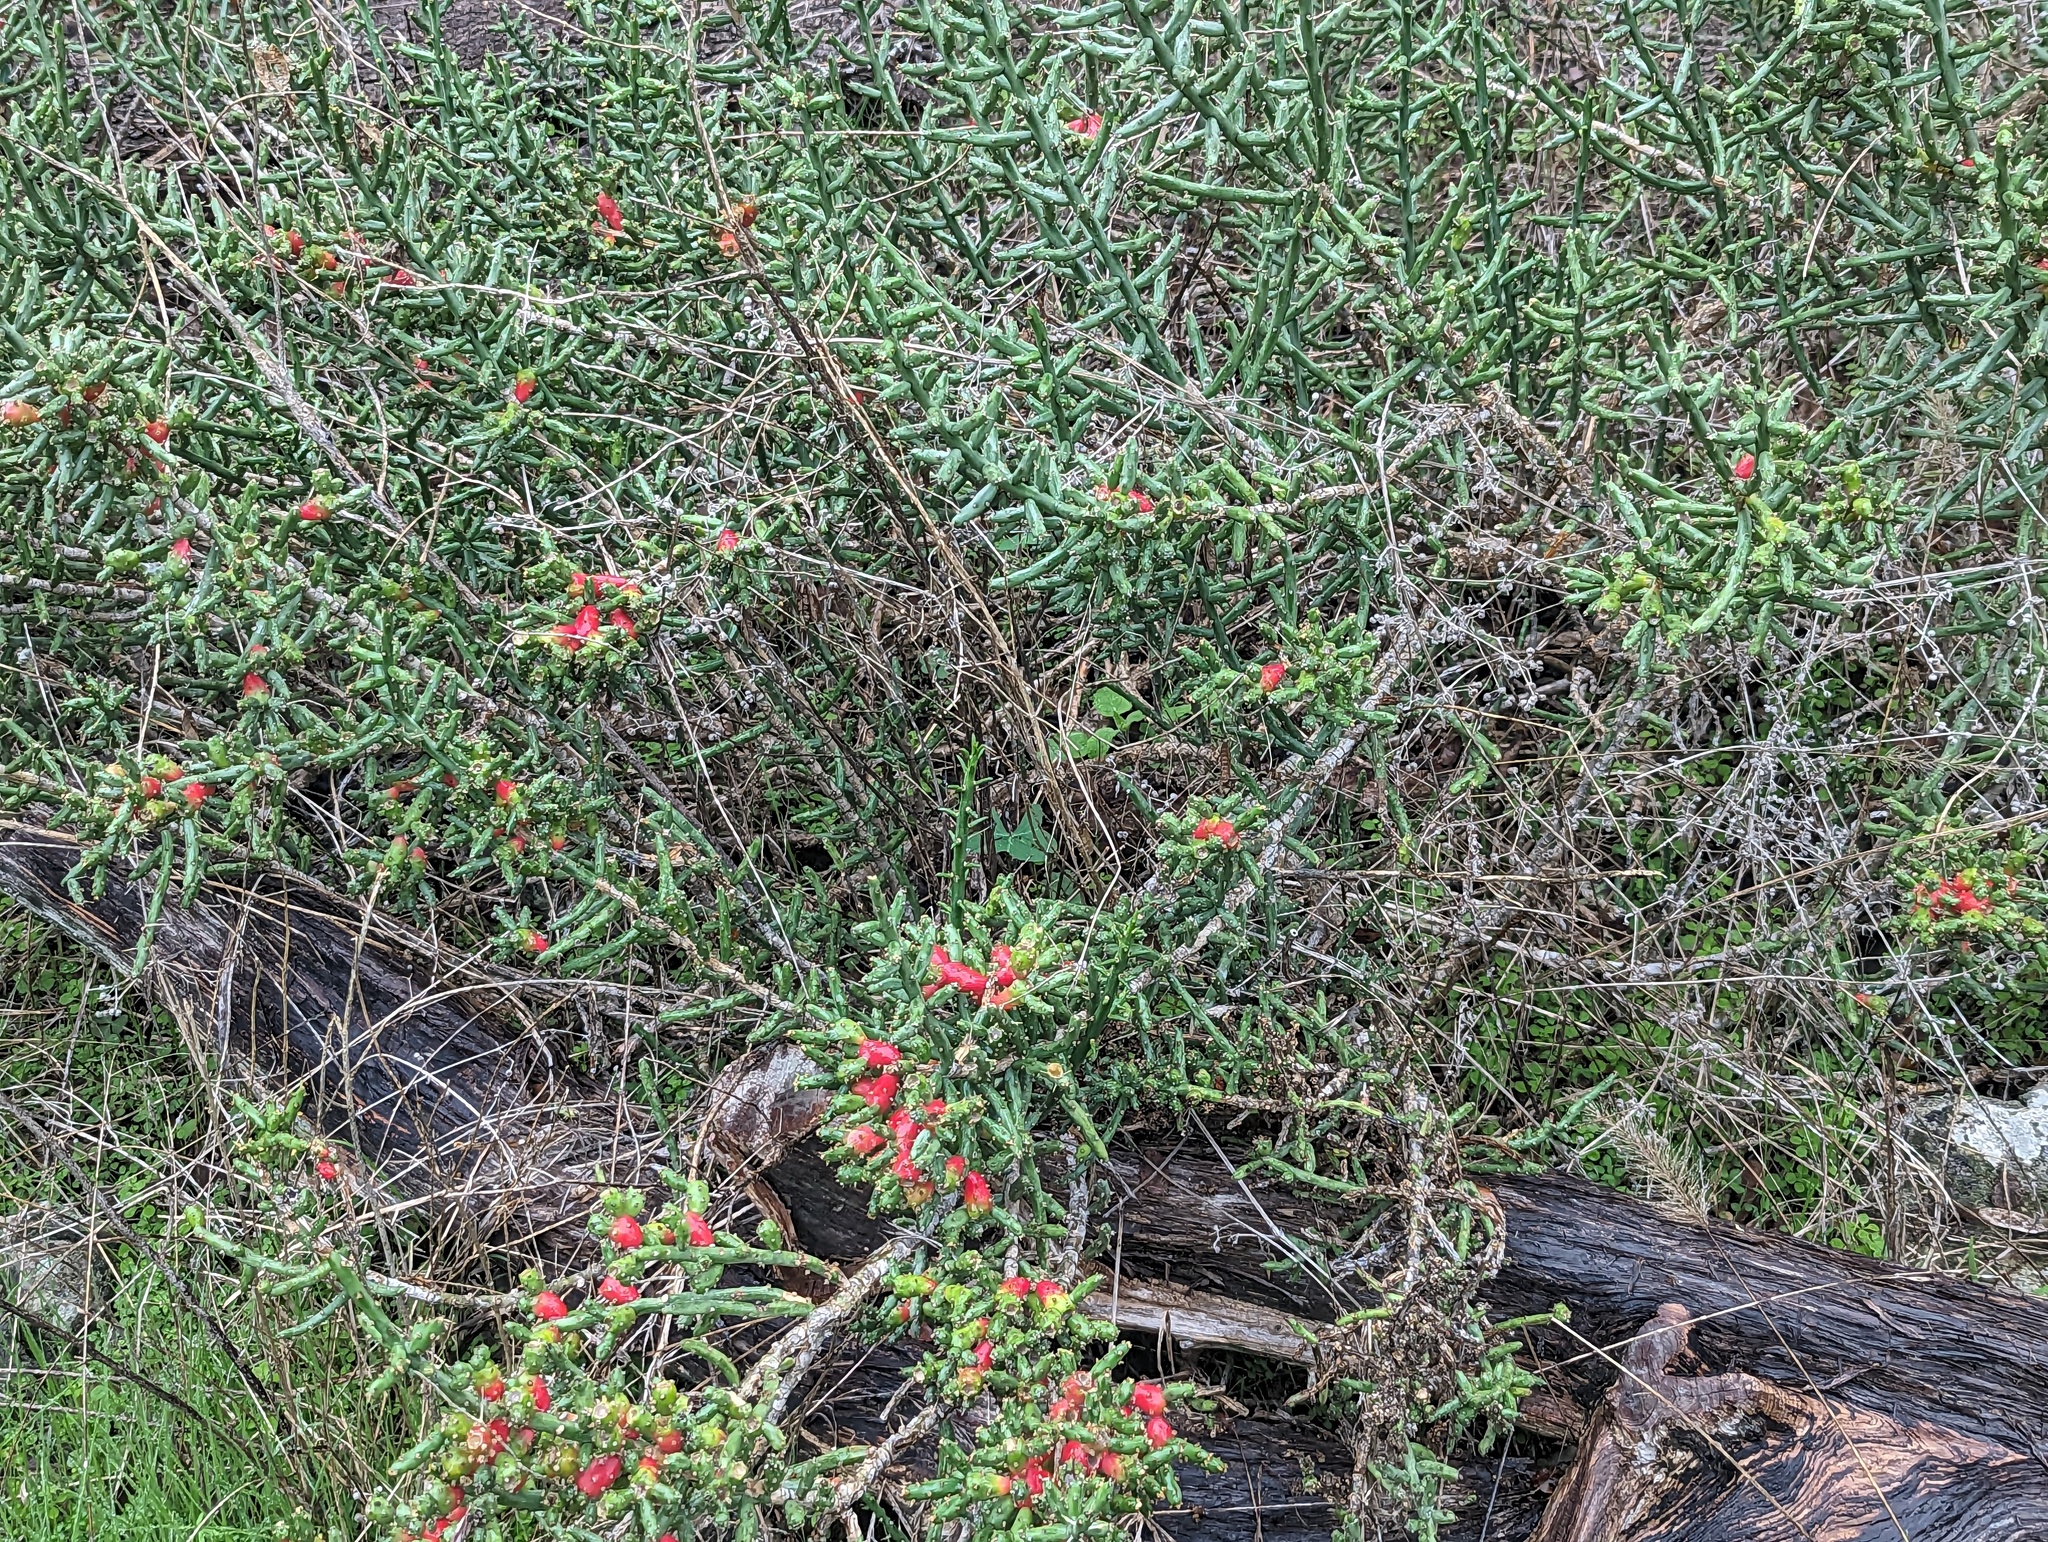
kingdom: Plantae
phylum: Tracheophyta
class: Magnoliopsida
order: Caryophyllales
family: Cactaceae
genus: Cylindropuntia
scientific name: Cylindropuntia leptocaulis
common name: Christmas cactus
